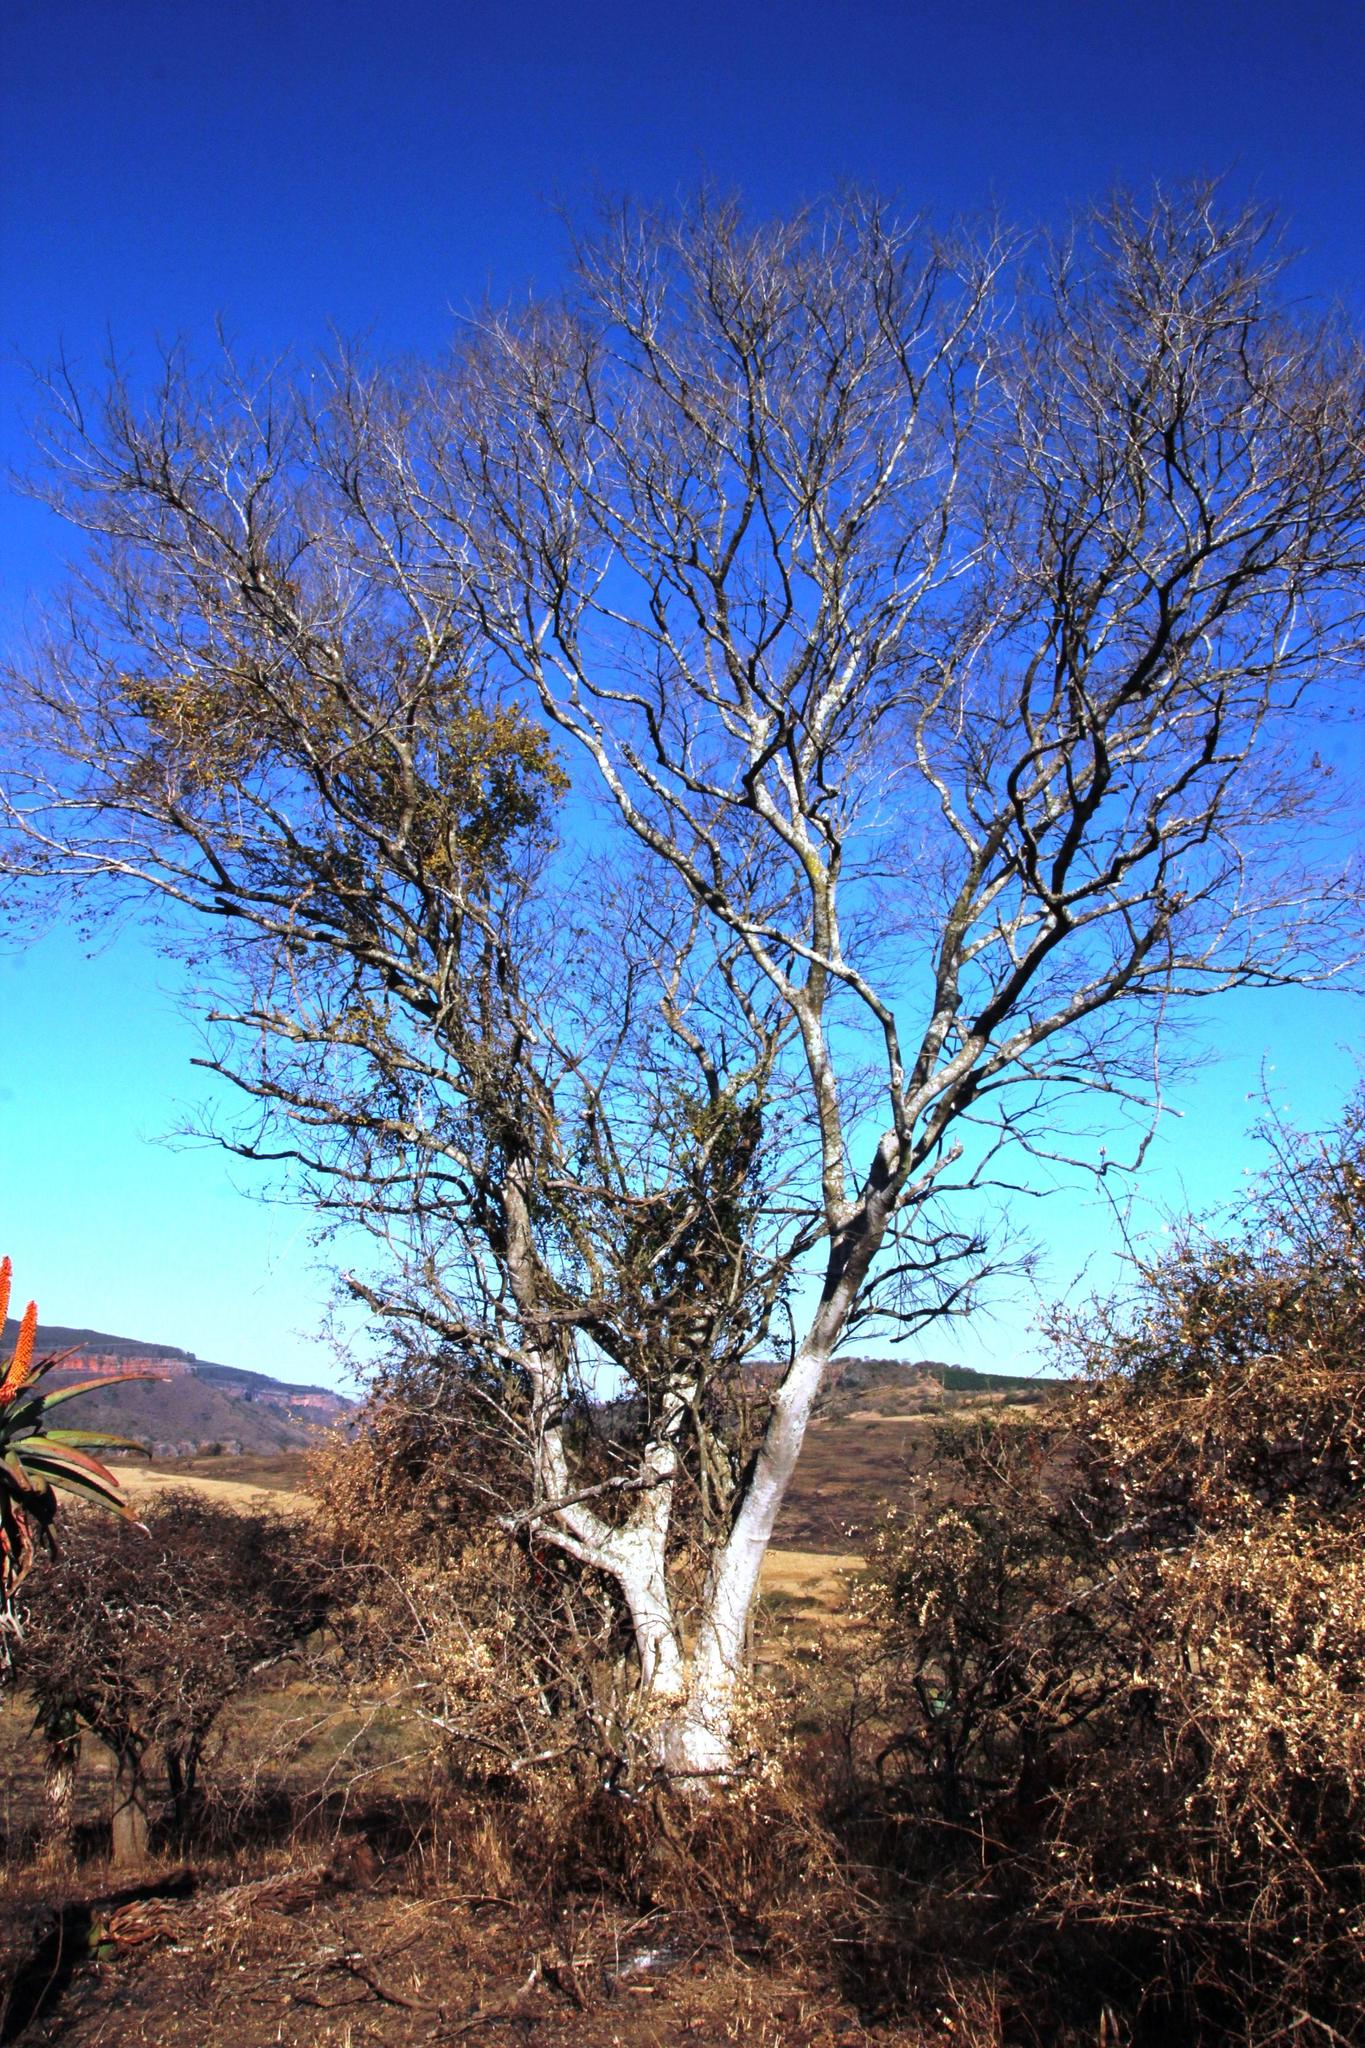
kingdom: Plantae
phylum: Tracheophyta
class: Magnoliopsida
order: Myrtales
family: Combretaceae
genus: Combretum
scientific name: Combretum erythrophyllum
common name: Bush-willow
